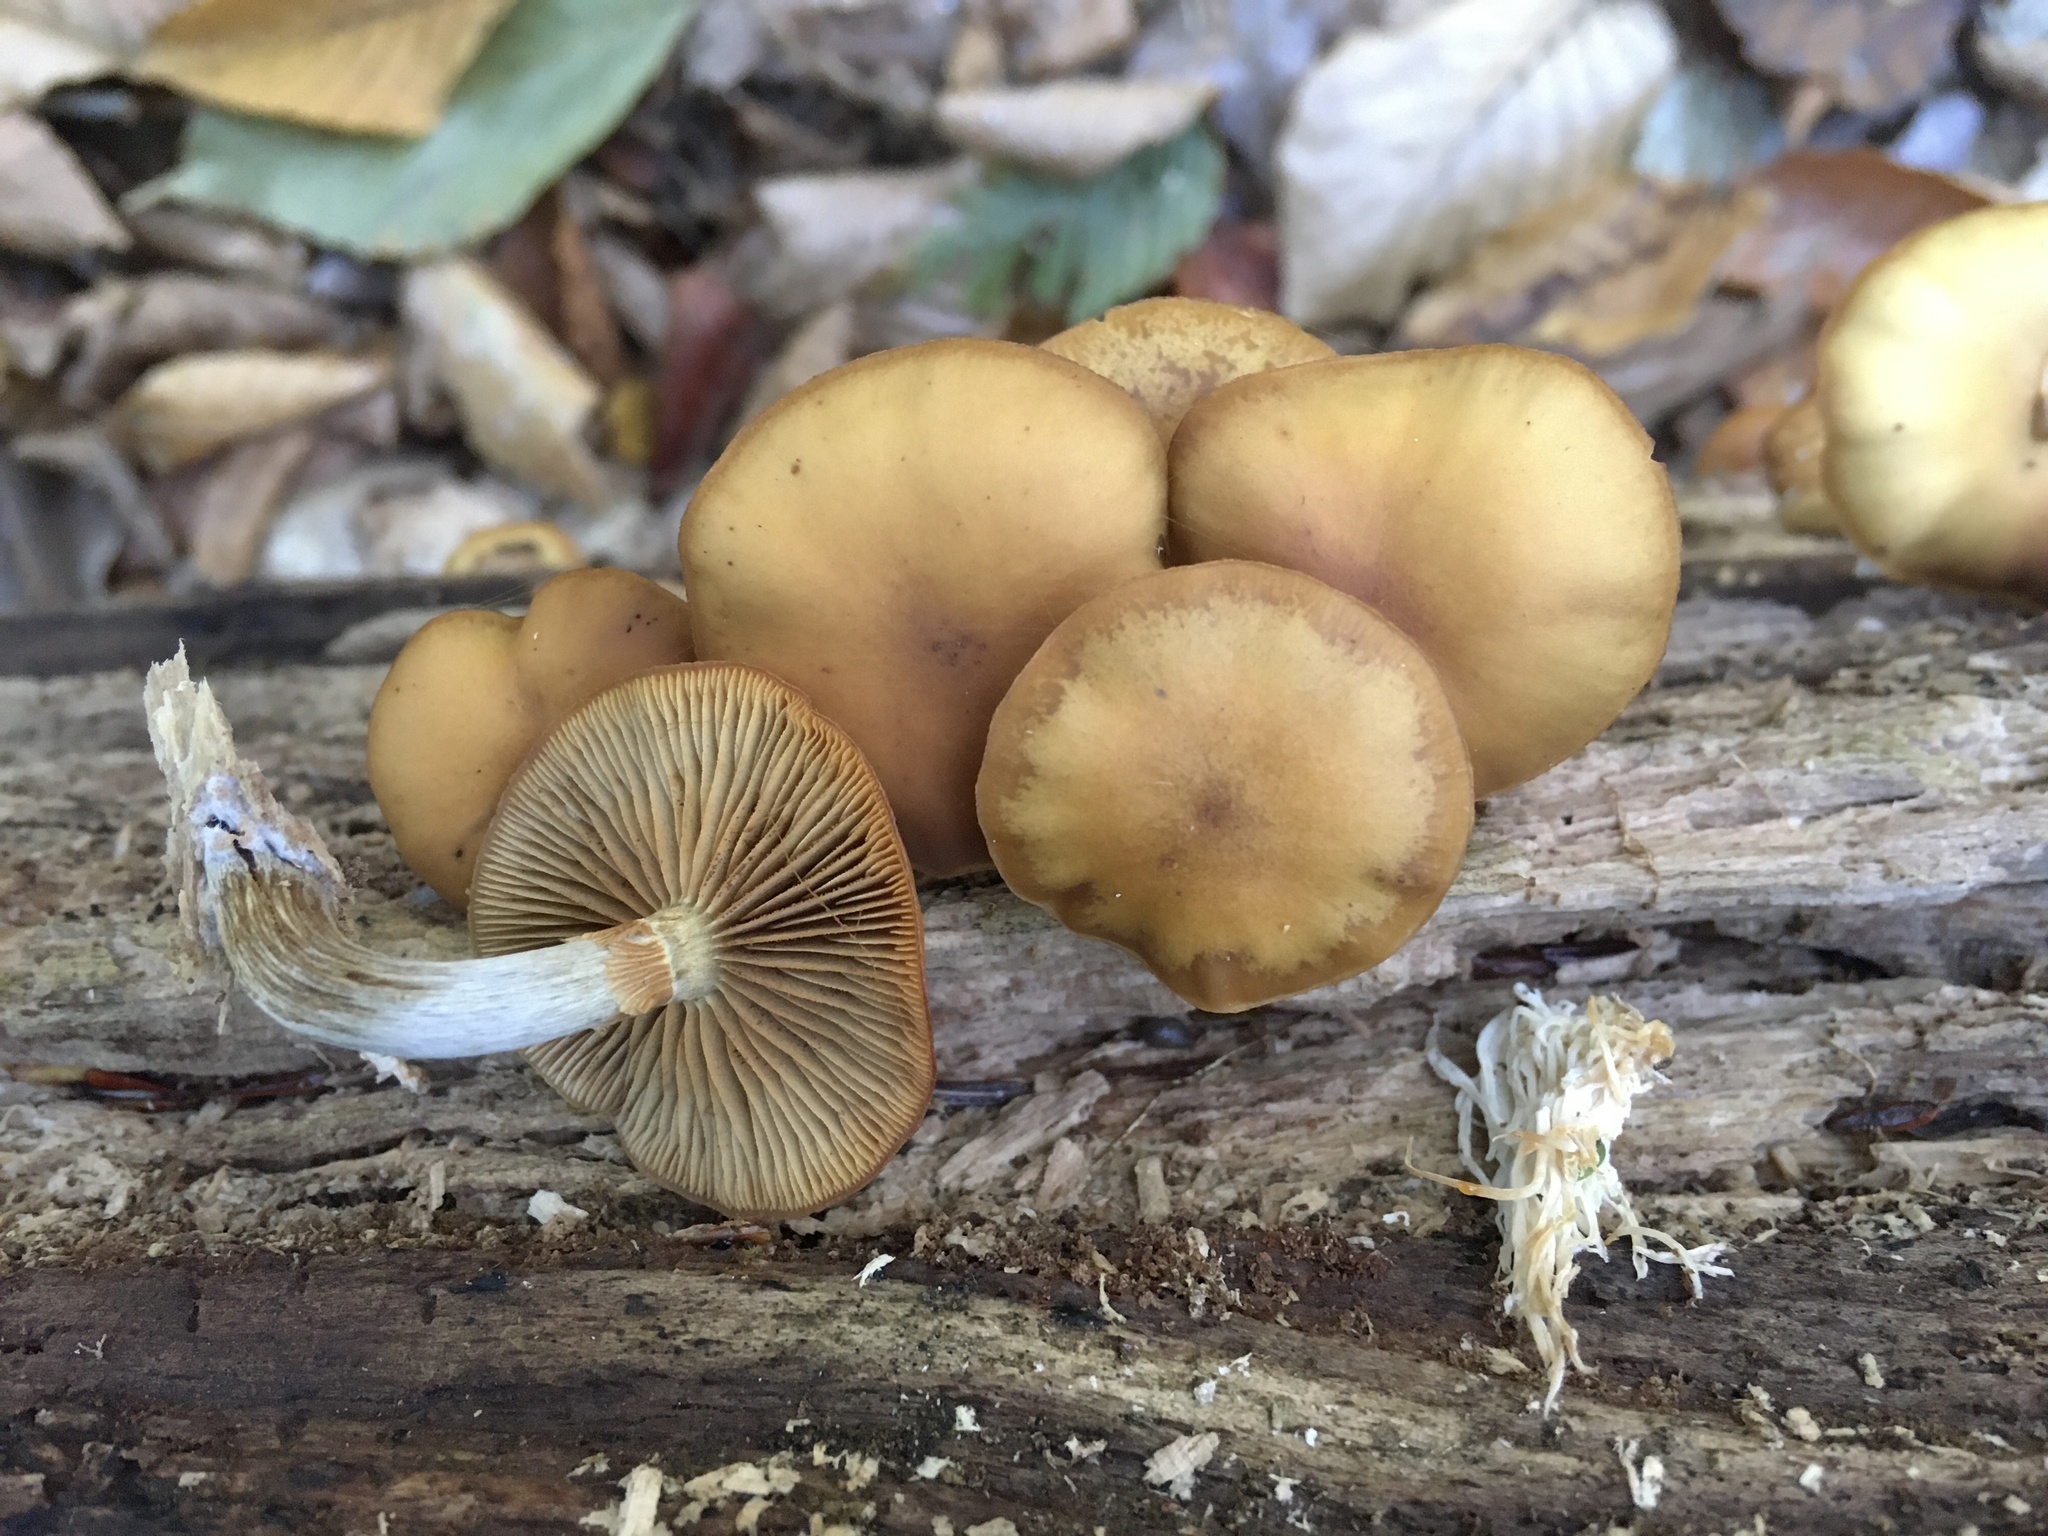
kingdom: Fungi
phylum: Basidiomycota
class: Agaricomycetes
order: Agaricales
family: Hymenogastraceae
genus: Galerina
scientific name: Galerina marginata
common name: Funeral bell
